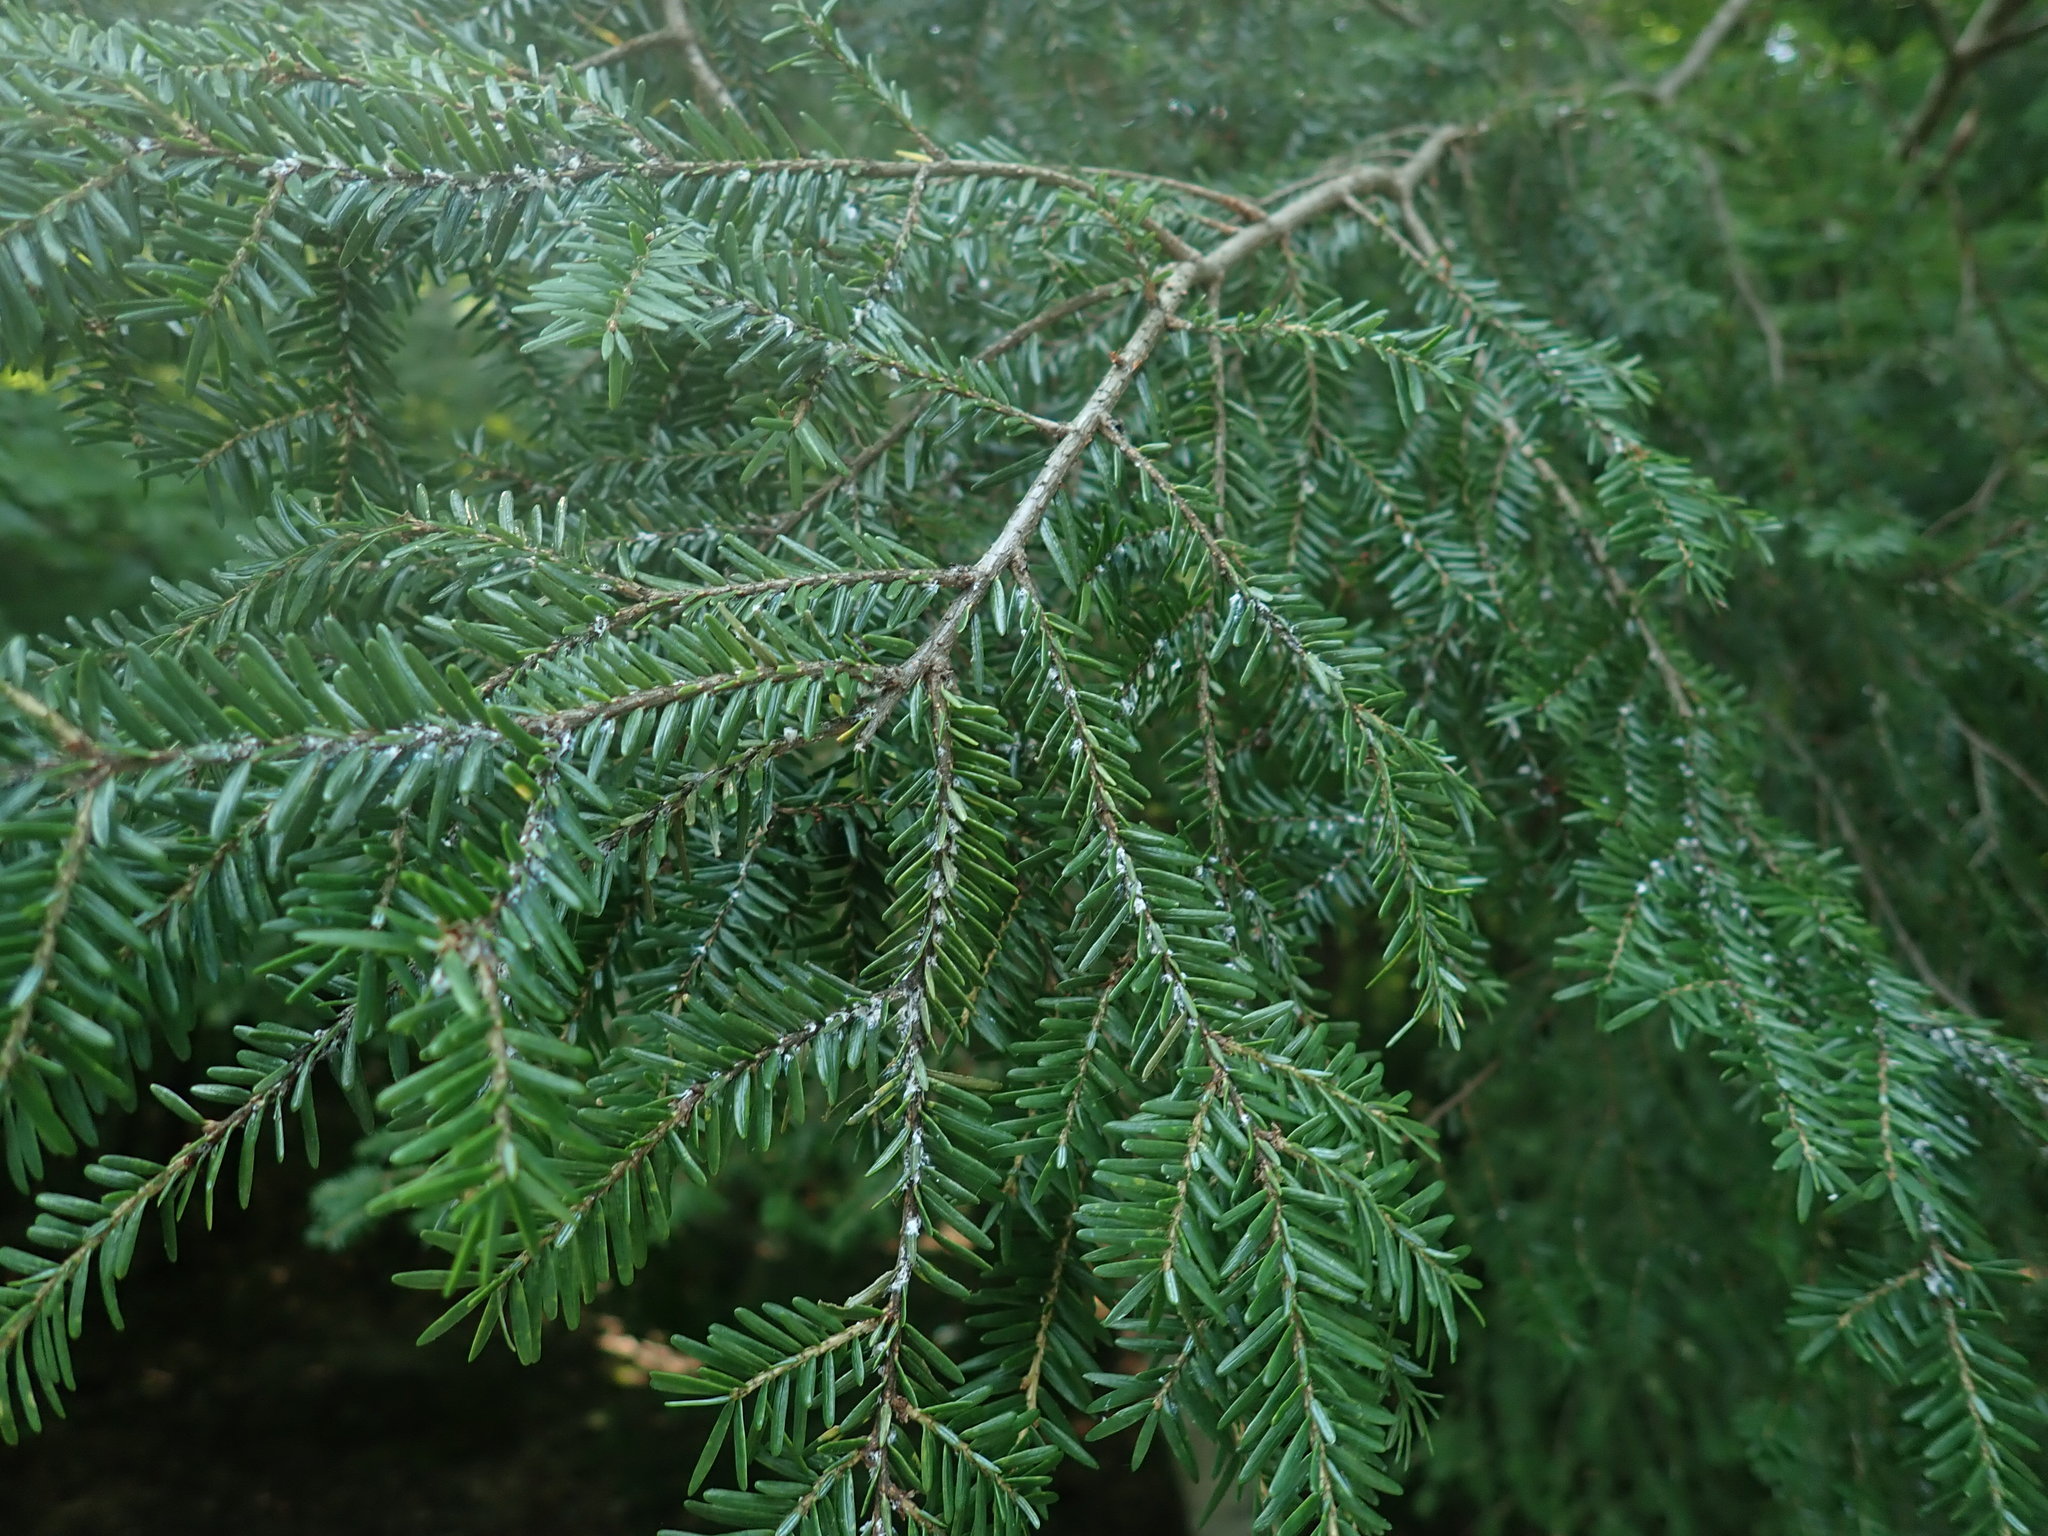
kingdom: Plantae
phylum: Tracheophyta
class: Pinopsida
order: Pinales
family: Pinaceae
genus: Tsuga
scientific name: Tsuga canadensis
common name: Eastern hemlock
